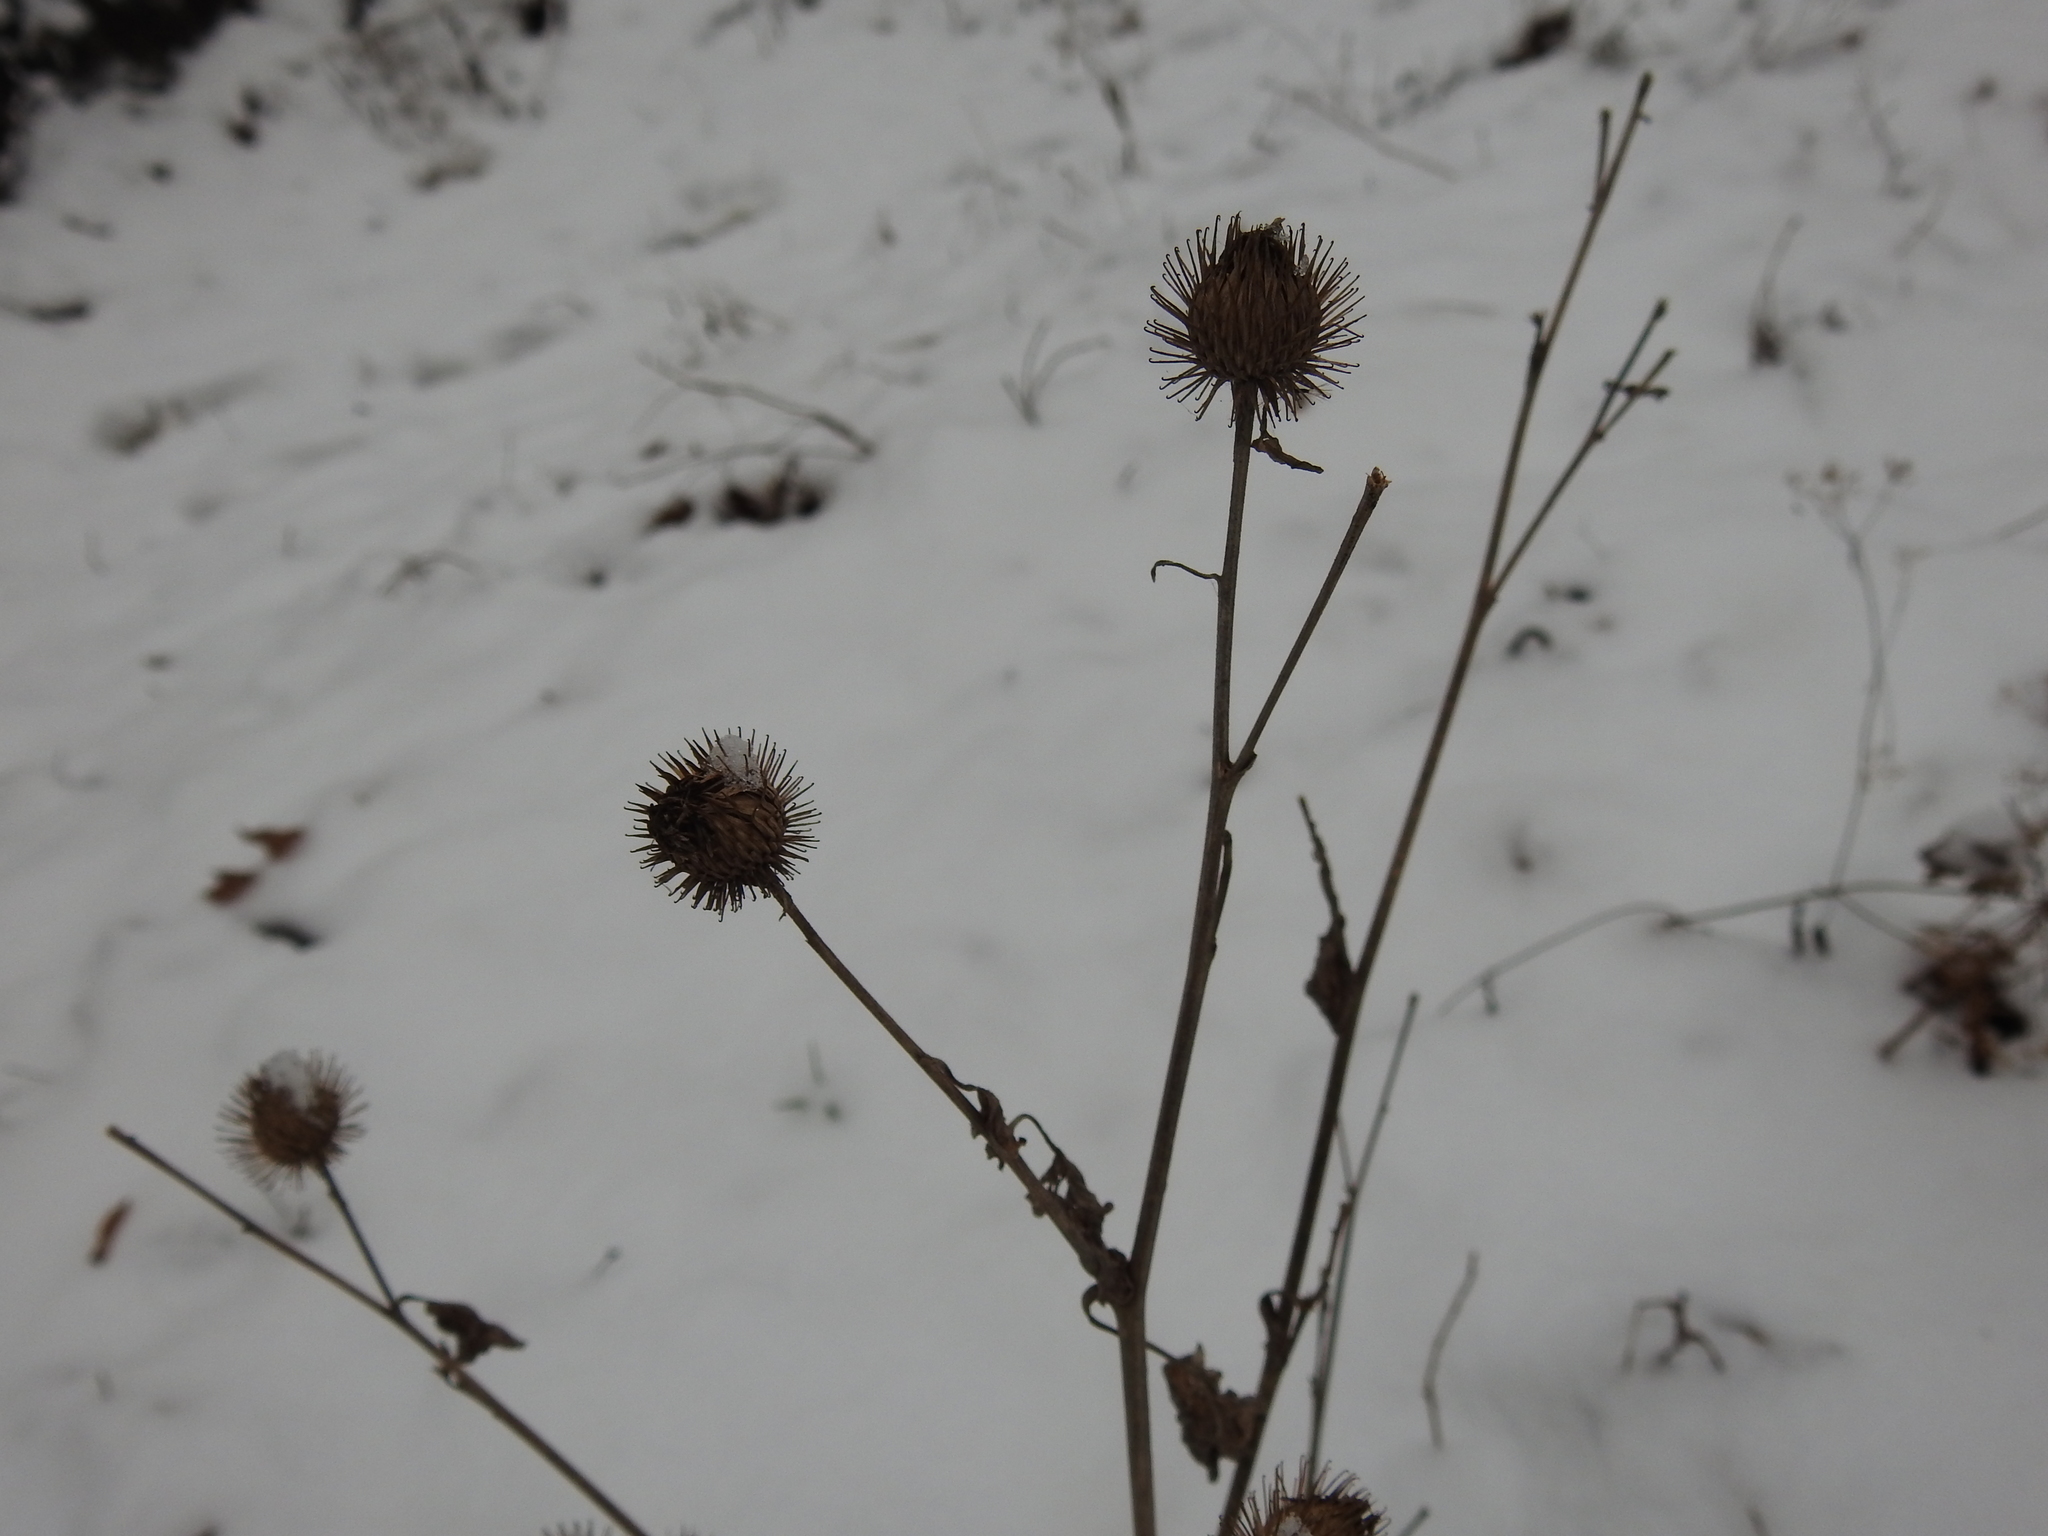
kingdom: Plantae
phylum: Tracheophyta
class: Magnoliopsida
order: Asterales
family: Asteraceae
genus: Arctium
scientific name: Arctium lappa
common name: Greater burdock
